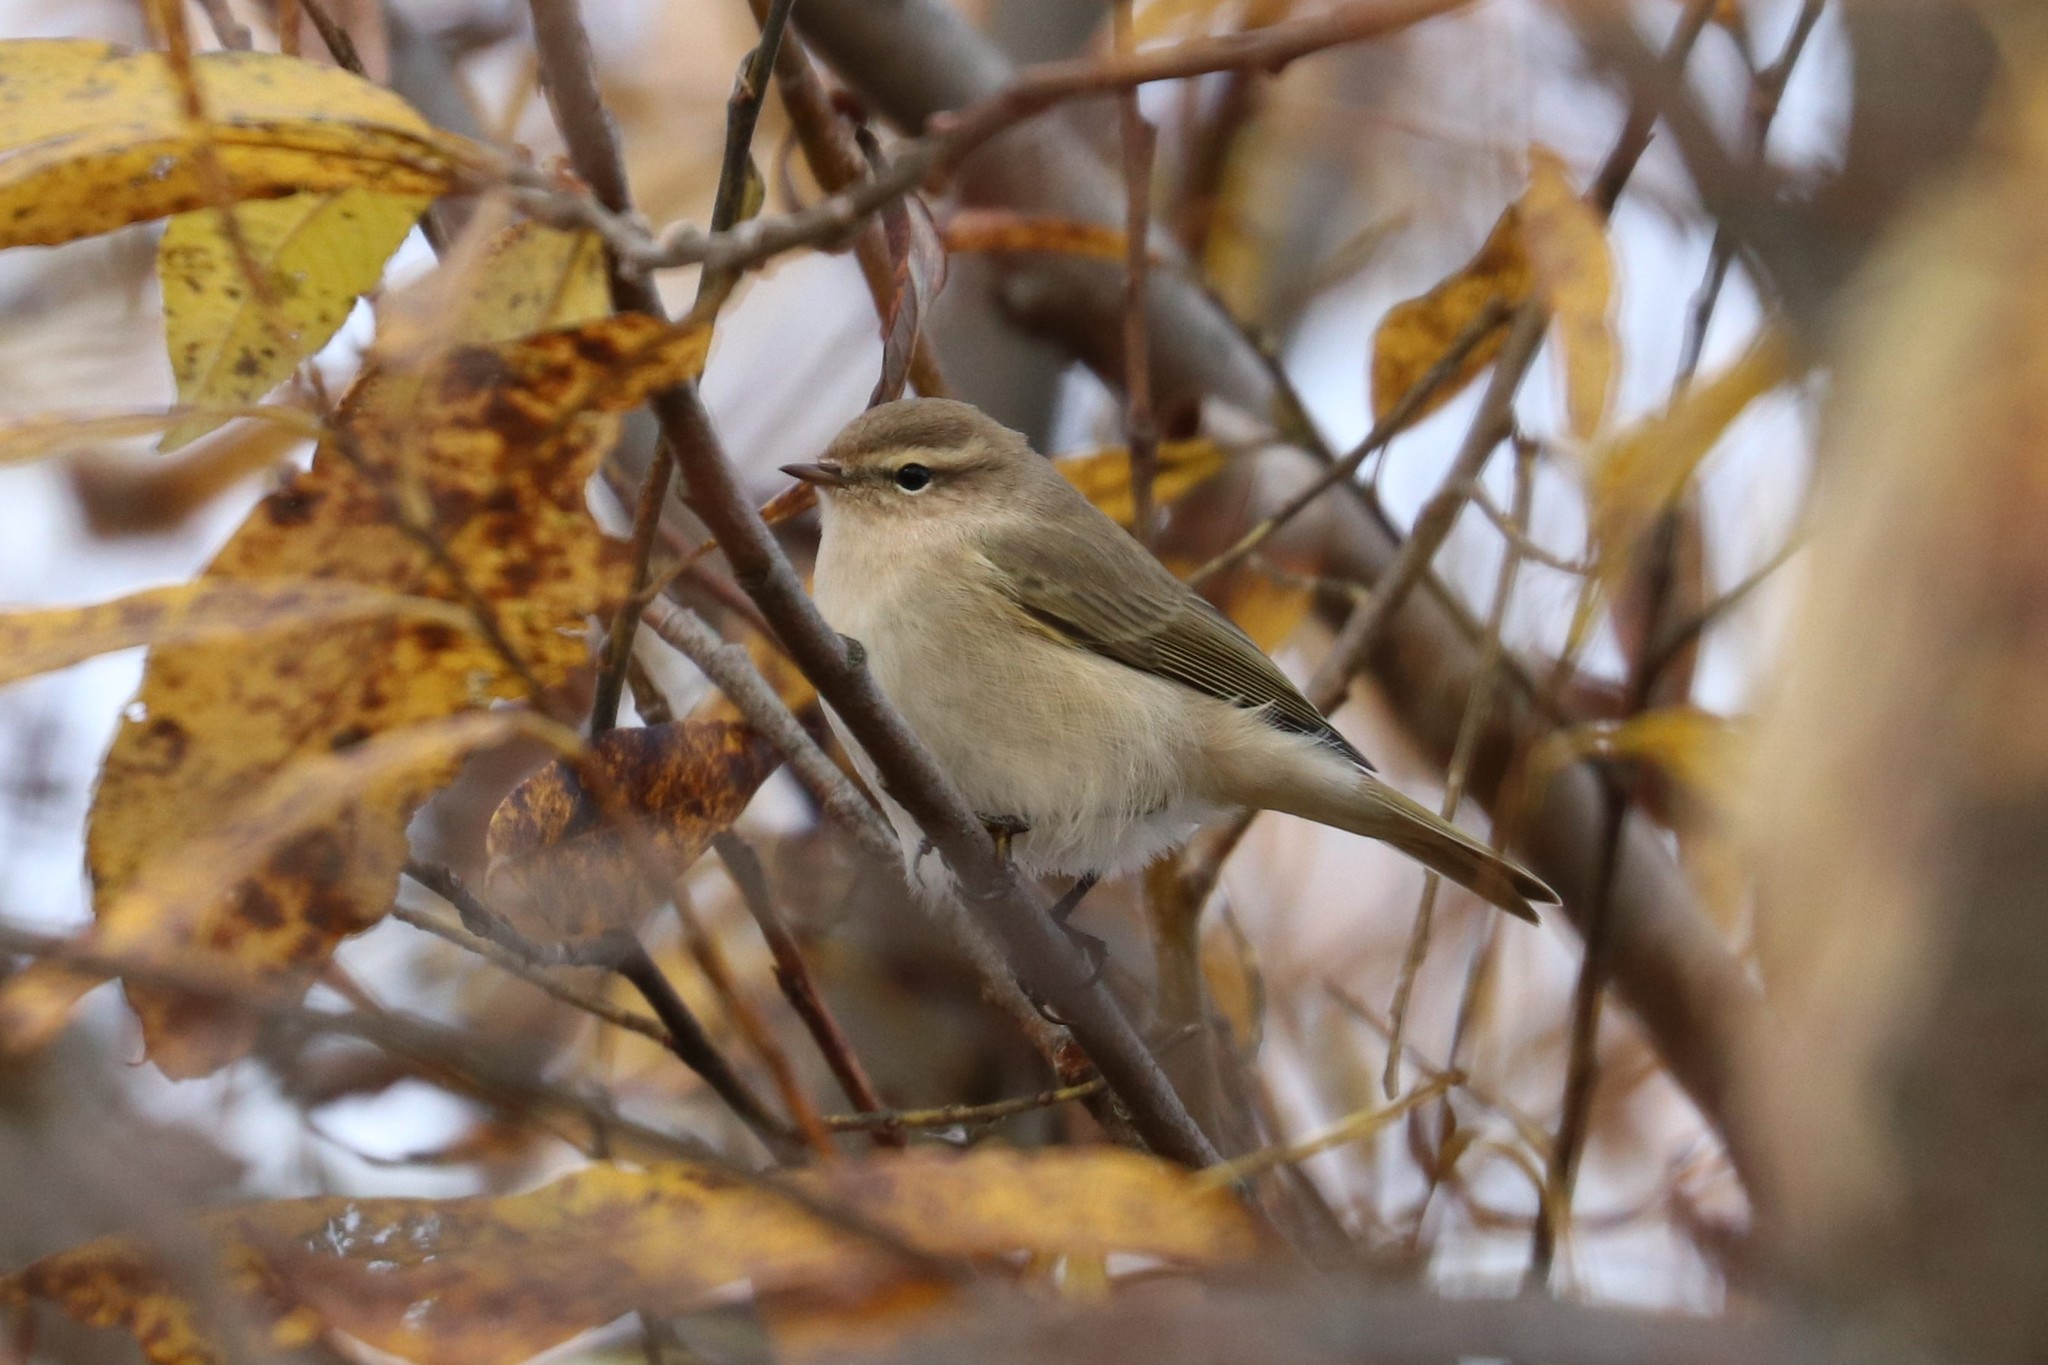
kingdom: Animalia
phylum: Chordata
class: Aves
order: Passeriformes
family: Phylloscopidae
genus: Phylloscopus
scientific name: Phylloscopus collybita
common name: Common chiffchaff
